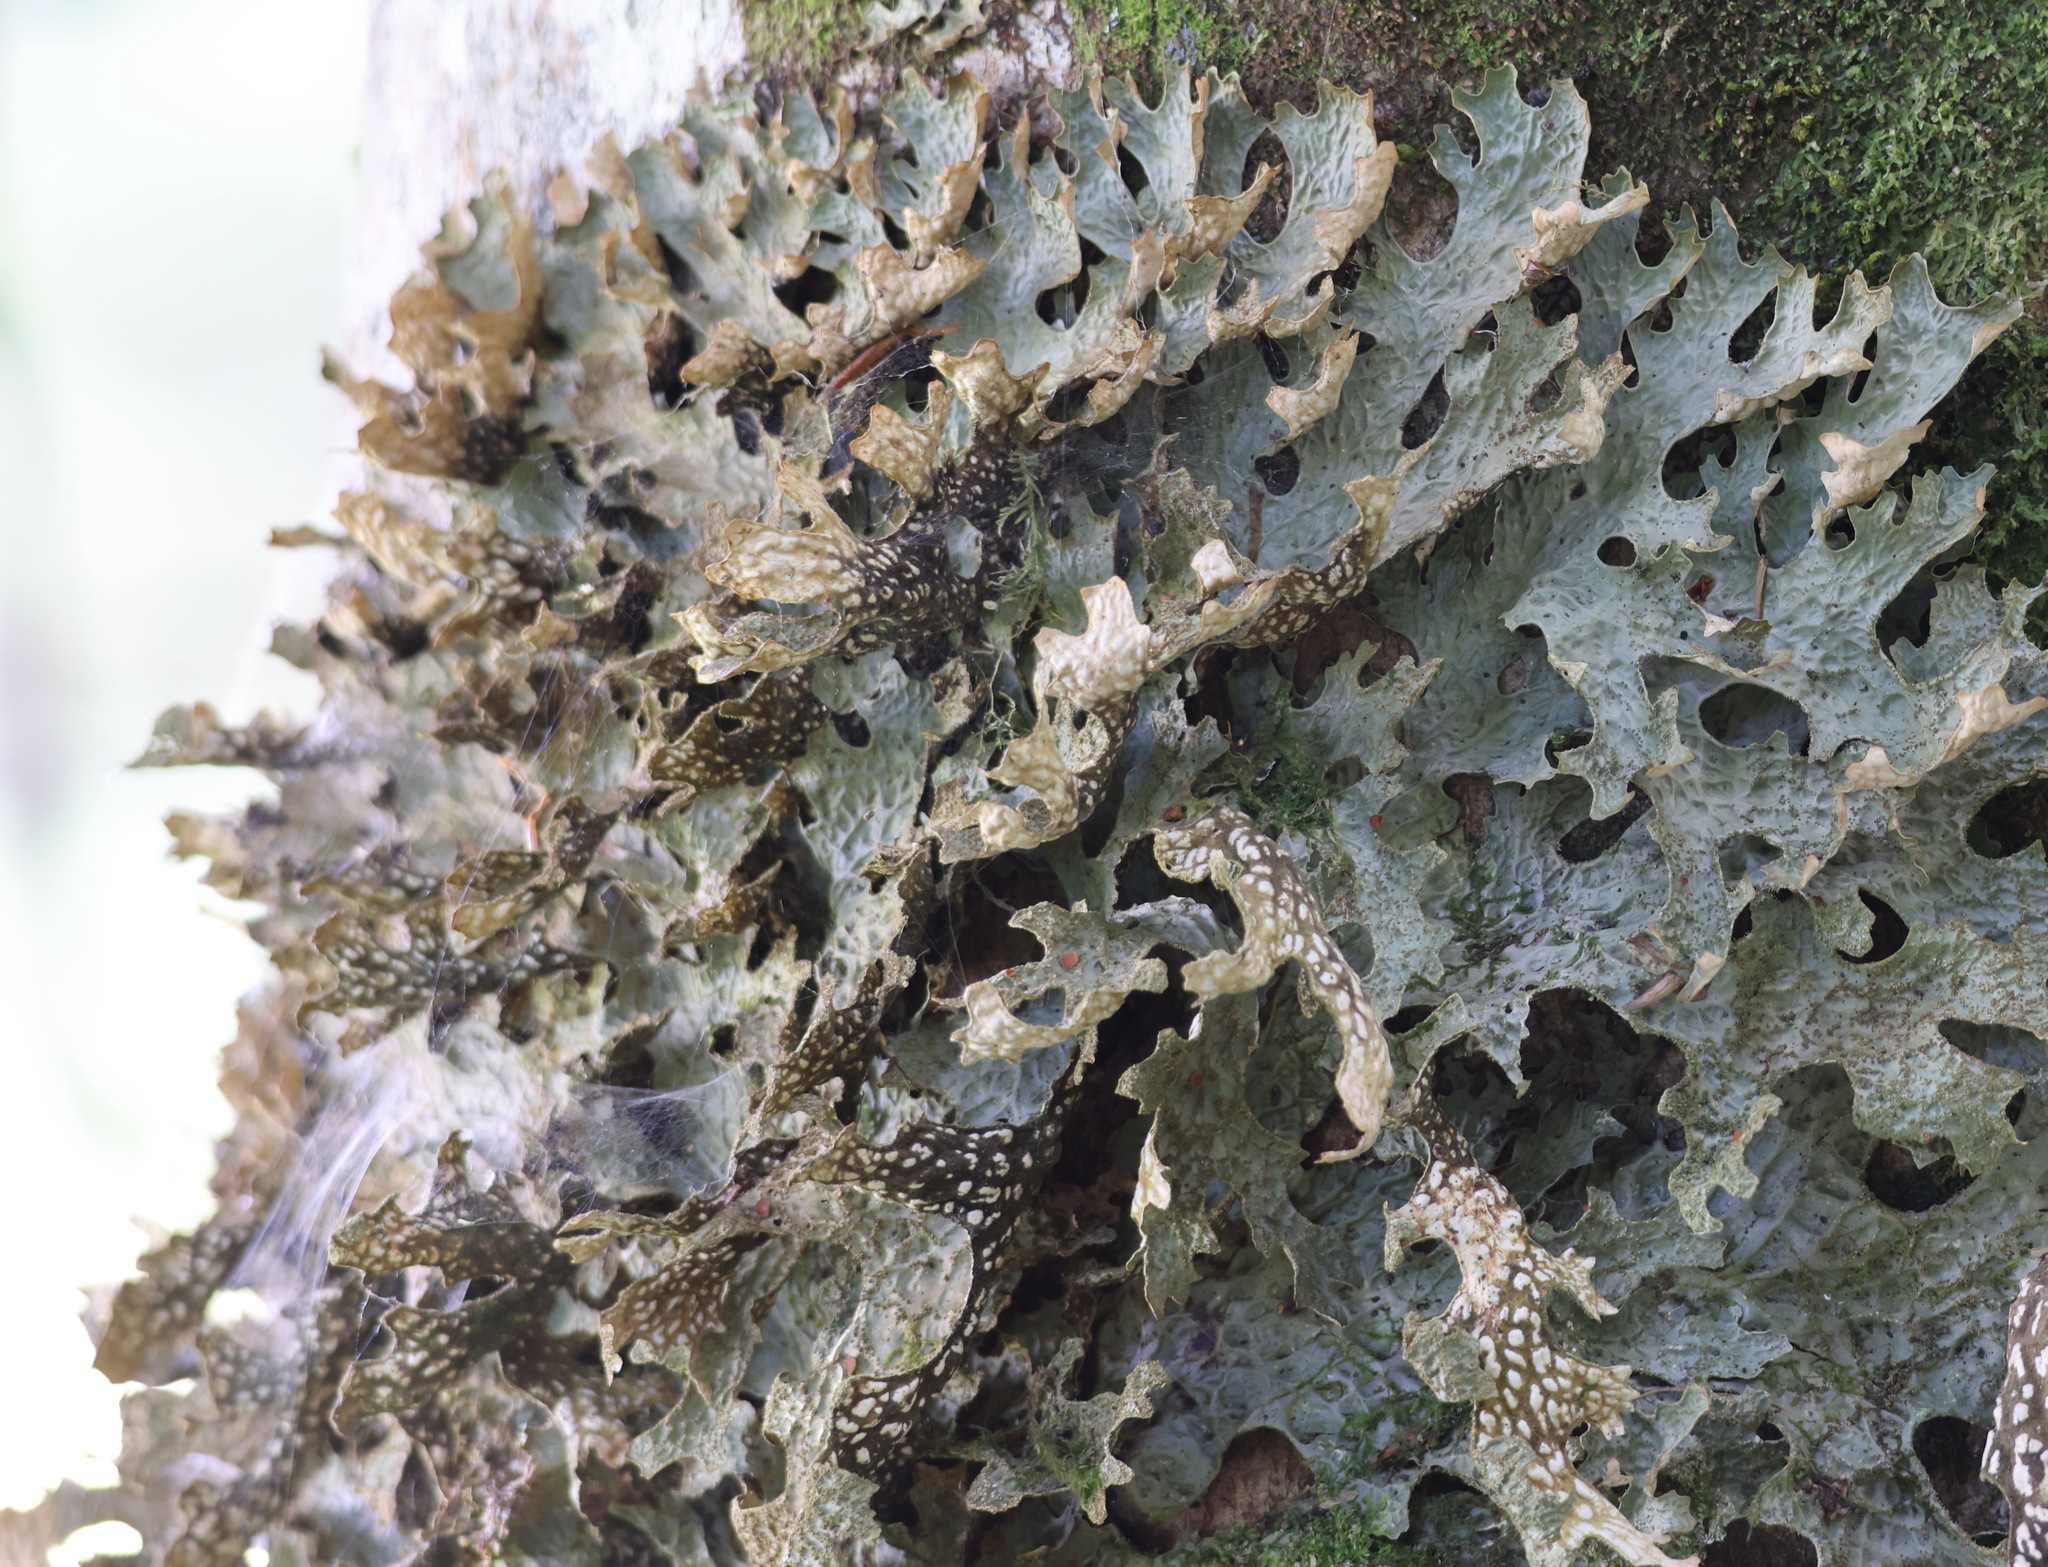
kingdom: Fungi
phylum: Ascomycota
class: Lecanoromycetes
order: Peltigerales
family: Lobariaceae
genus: Lobaria
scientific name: Lobaria pulmonaria
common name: Lungwort
